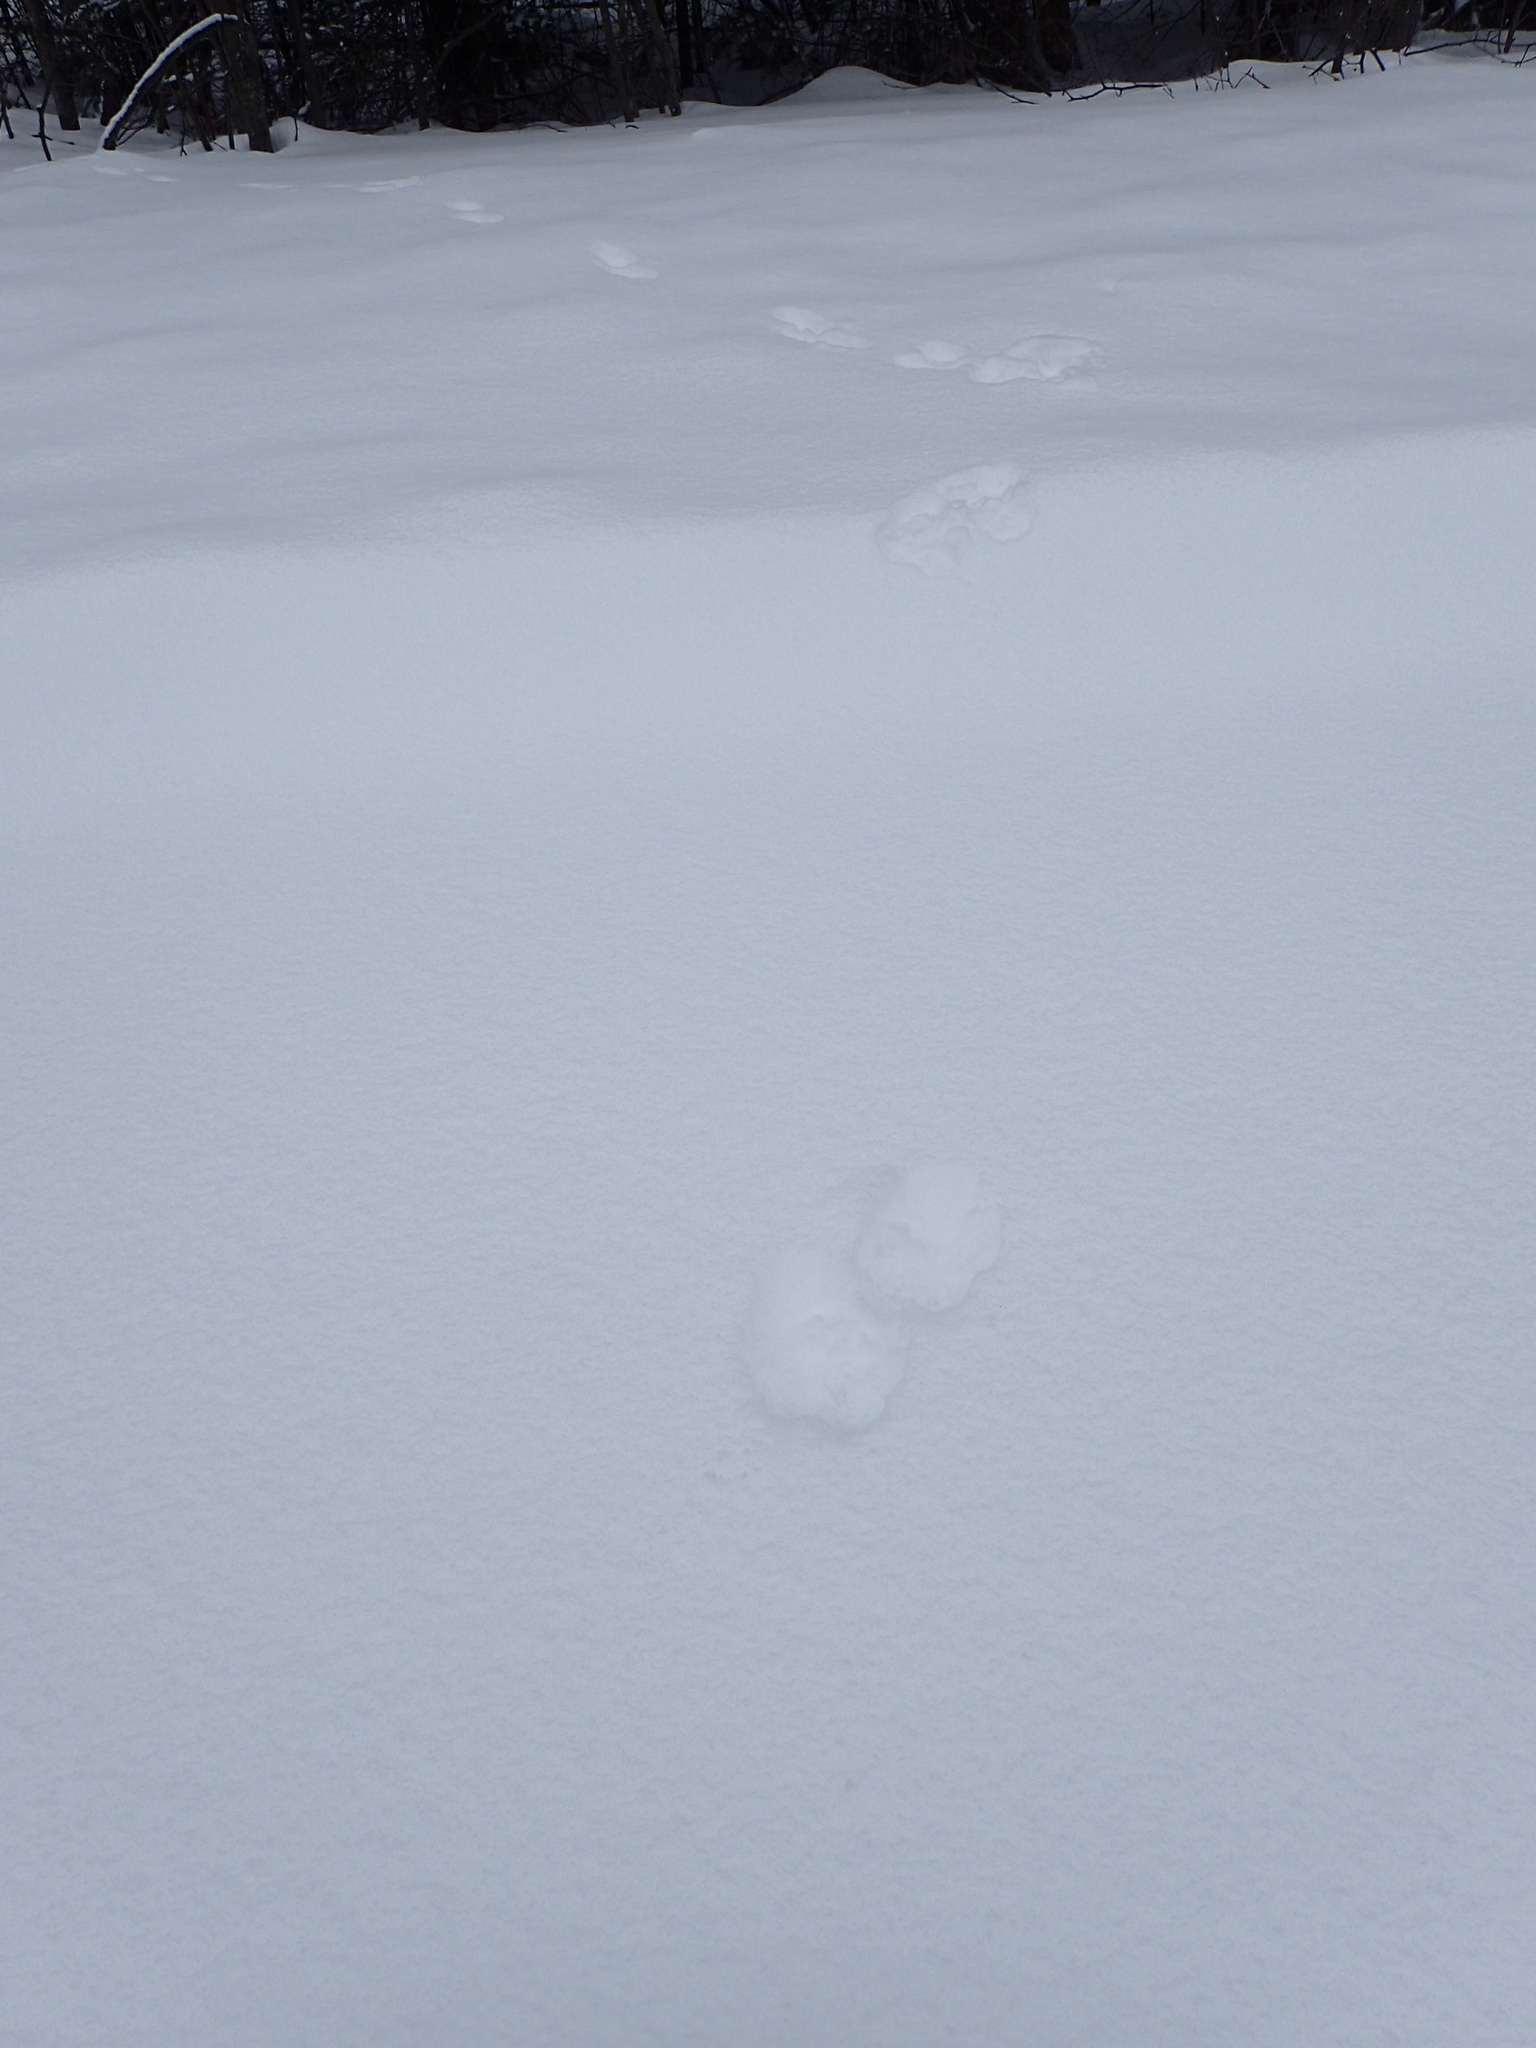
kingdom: Animalia
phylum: Chordata
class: Mammalia
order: Carnivora
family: Mustelidae
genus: Martes
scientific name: Martes americana
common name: American marten
